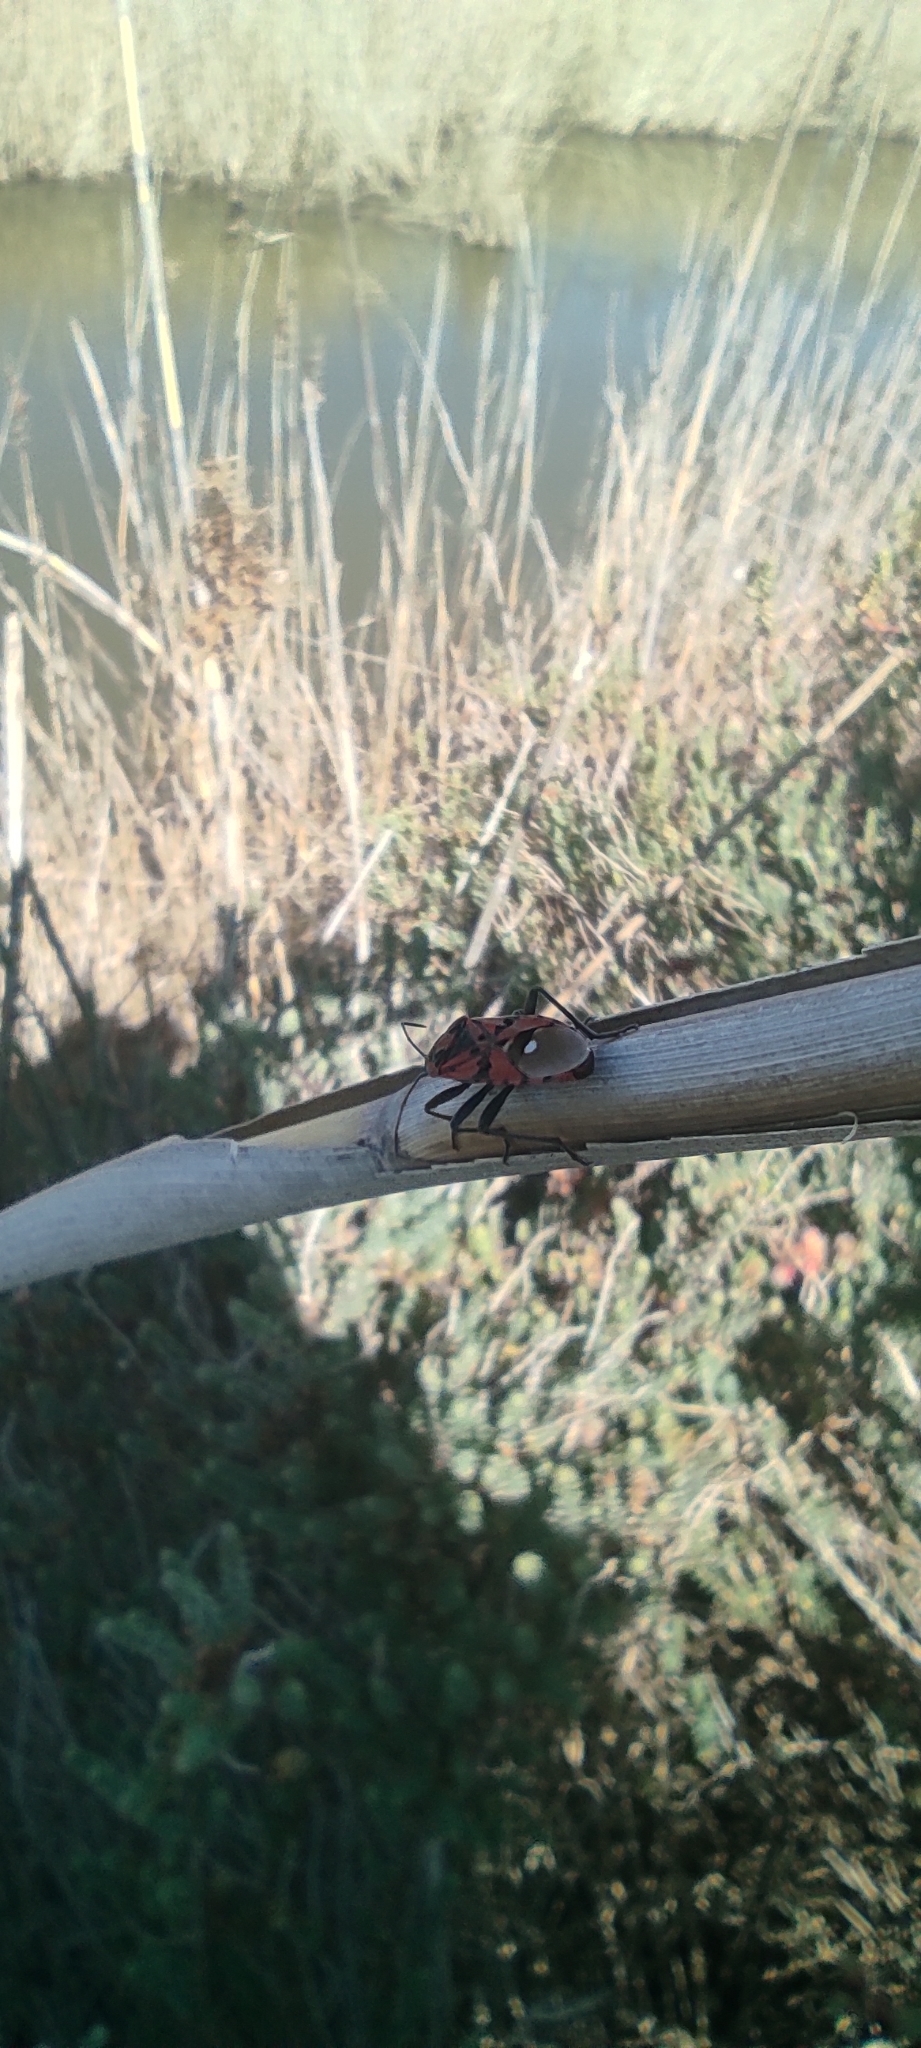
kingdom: Animalia
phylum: Arthropoda
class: Insecta
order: Hemiptera
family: Lygaeidae
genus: Spilostethus
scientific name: Spilostethus pandurus
